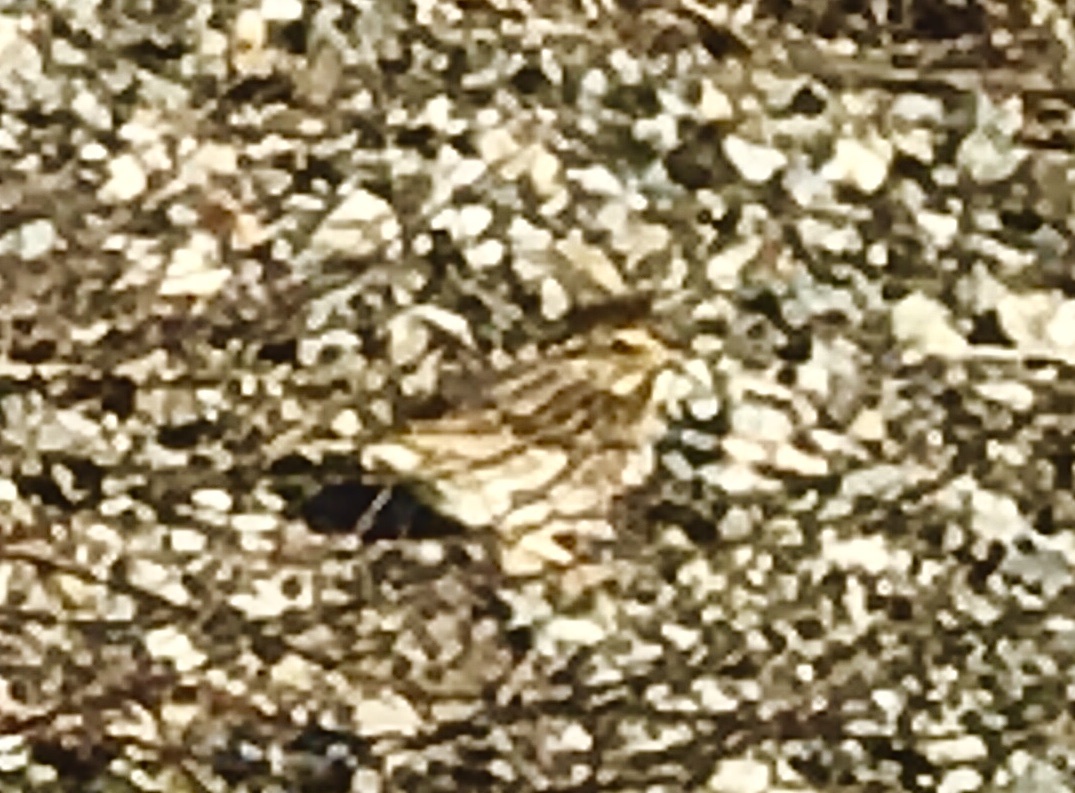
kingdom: Animalia
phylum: Chordata
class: Aves
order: Passeriformes
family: Passerellidae
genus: Passerculus
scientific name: Passerculus sandwichensis
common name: Savannah sparrow
